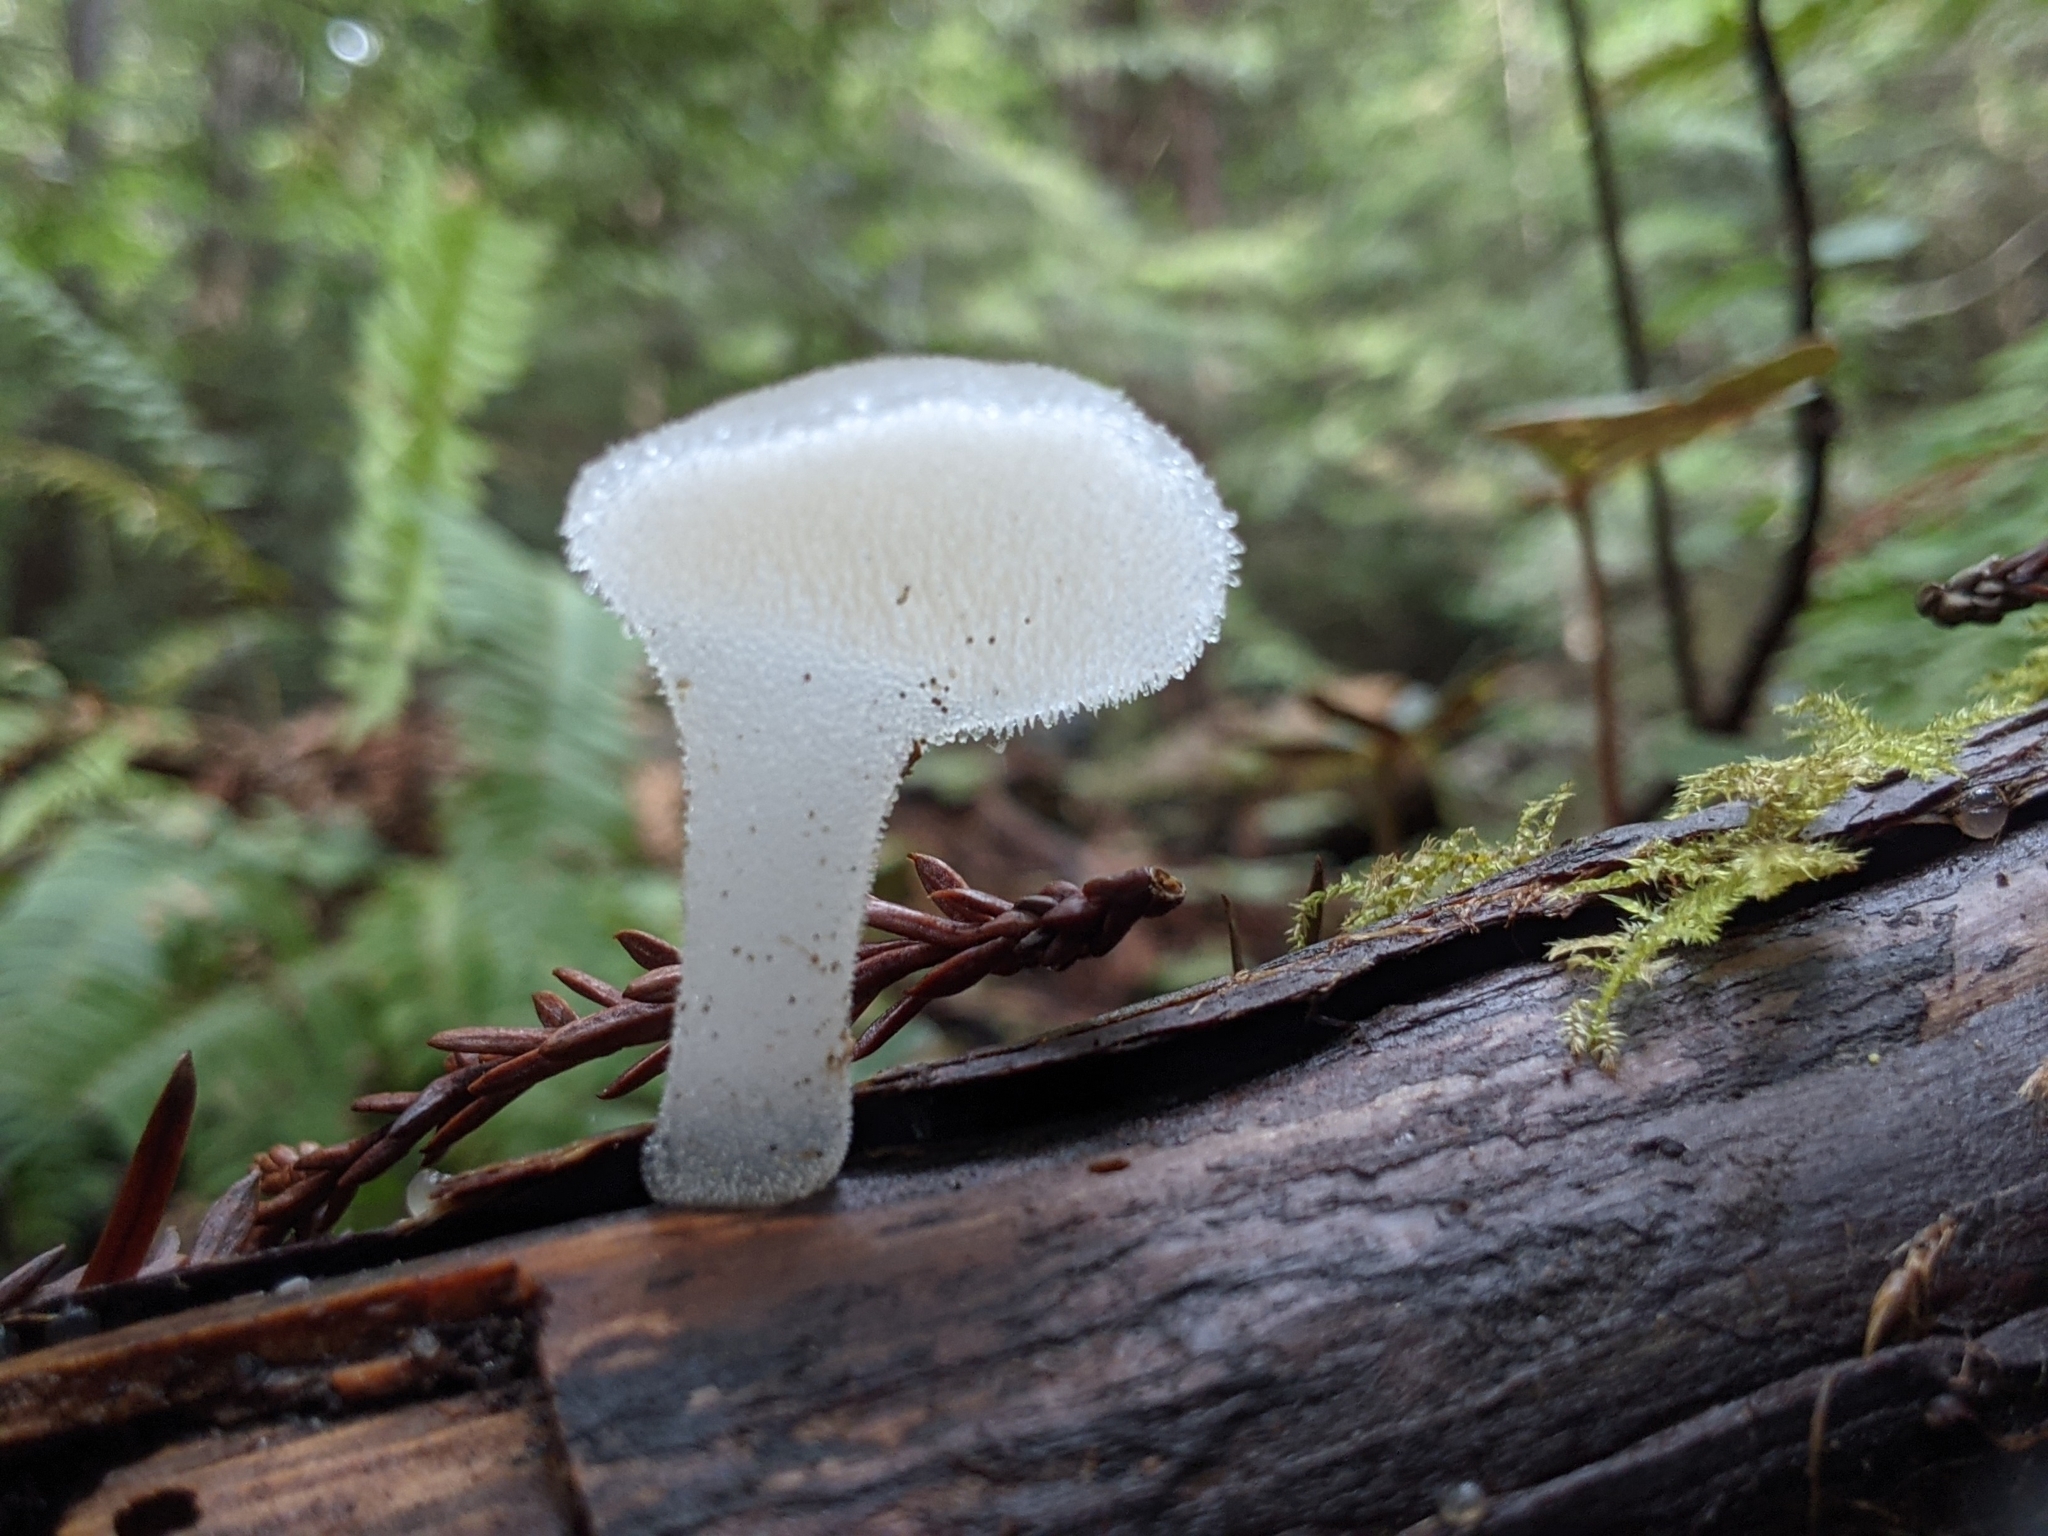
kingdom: Fungi
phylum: Basidiomycota
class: Agaricomycetes
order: Auriculariales
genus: Pseudohydnum
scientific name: Pseudohydnum gelatinosum
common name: Jelly tongue
